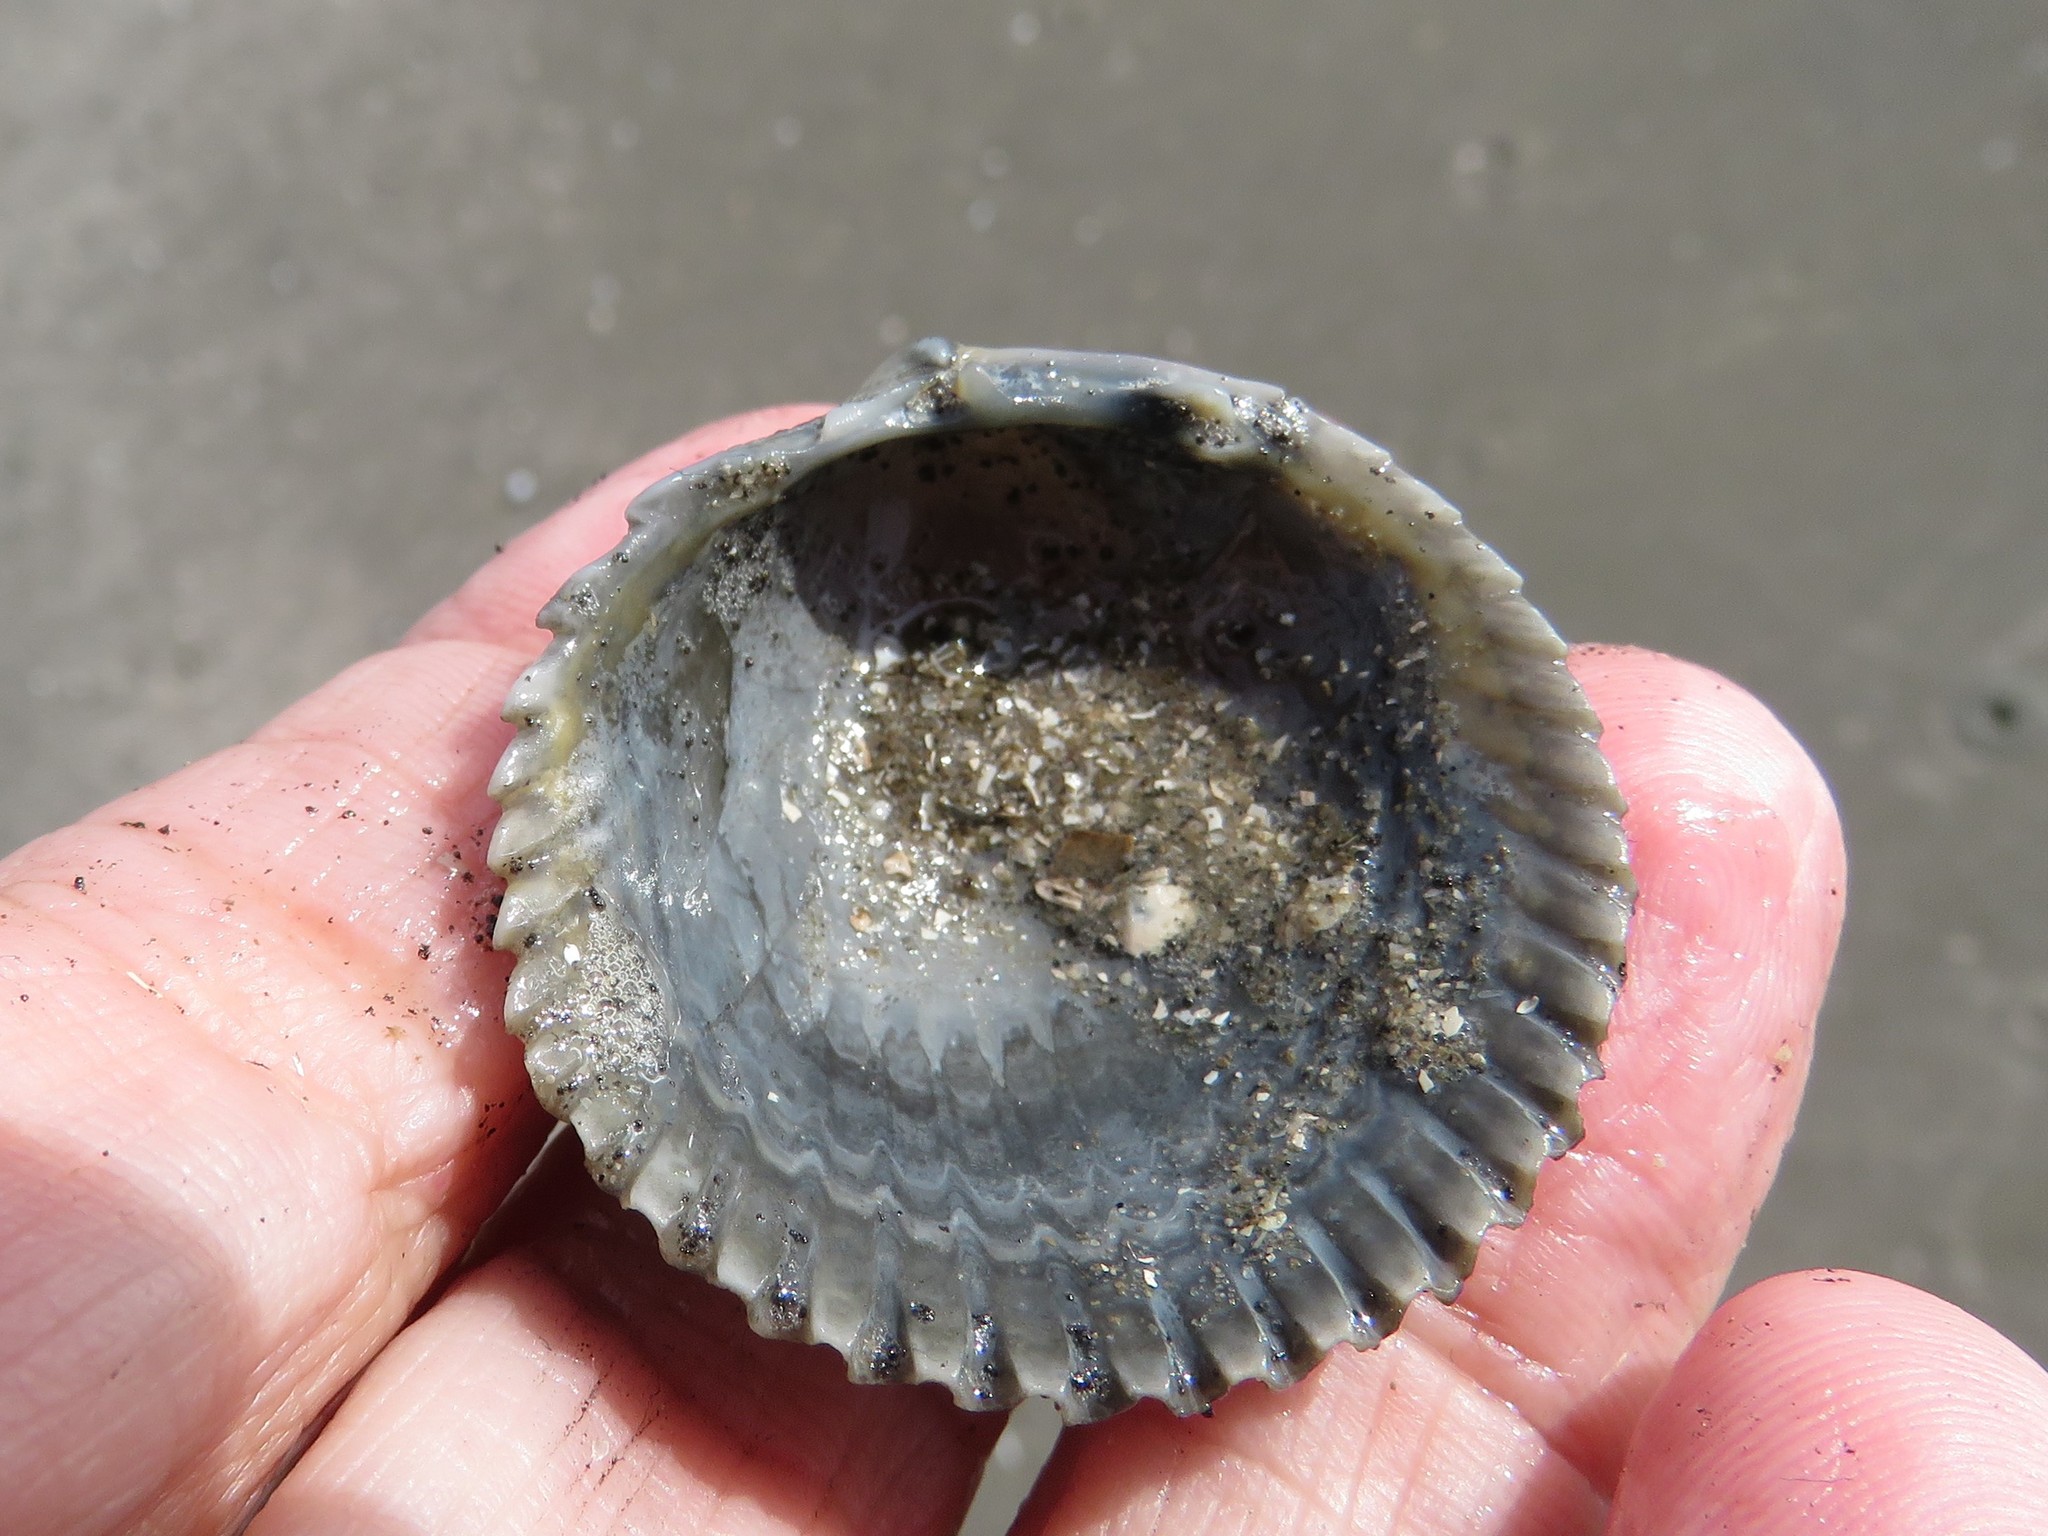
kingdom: Animalia
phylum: Mollusca
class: Bivalvia
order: Cardiida
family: Cardiidae
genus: Dallocardia
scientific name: Dallocardia muricata
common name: Yellow pricklycockle
